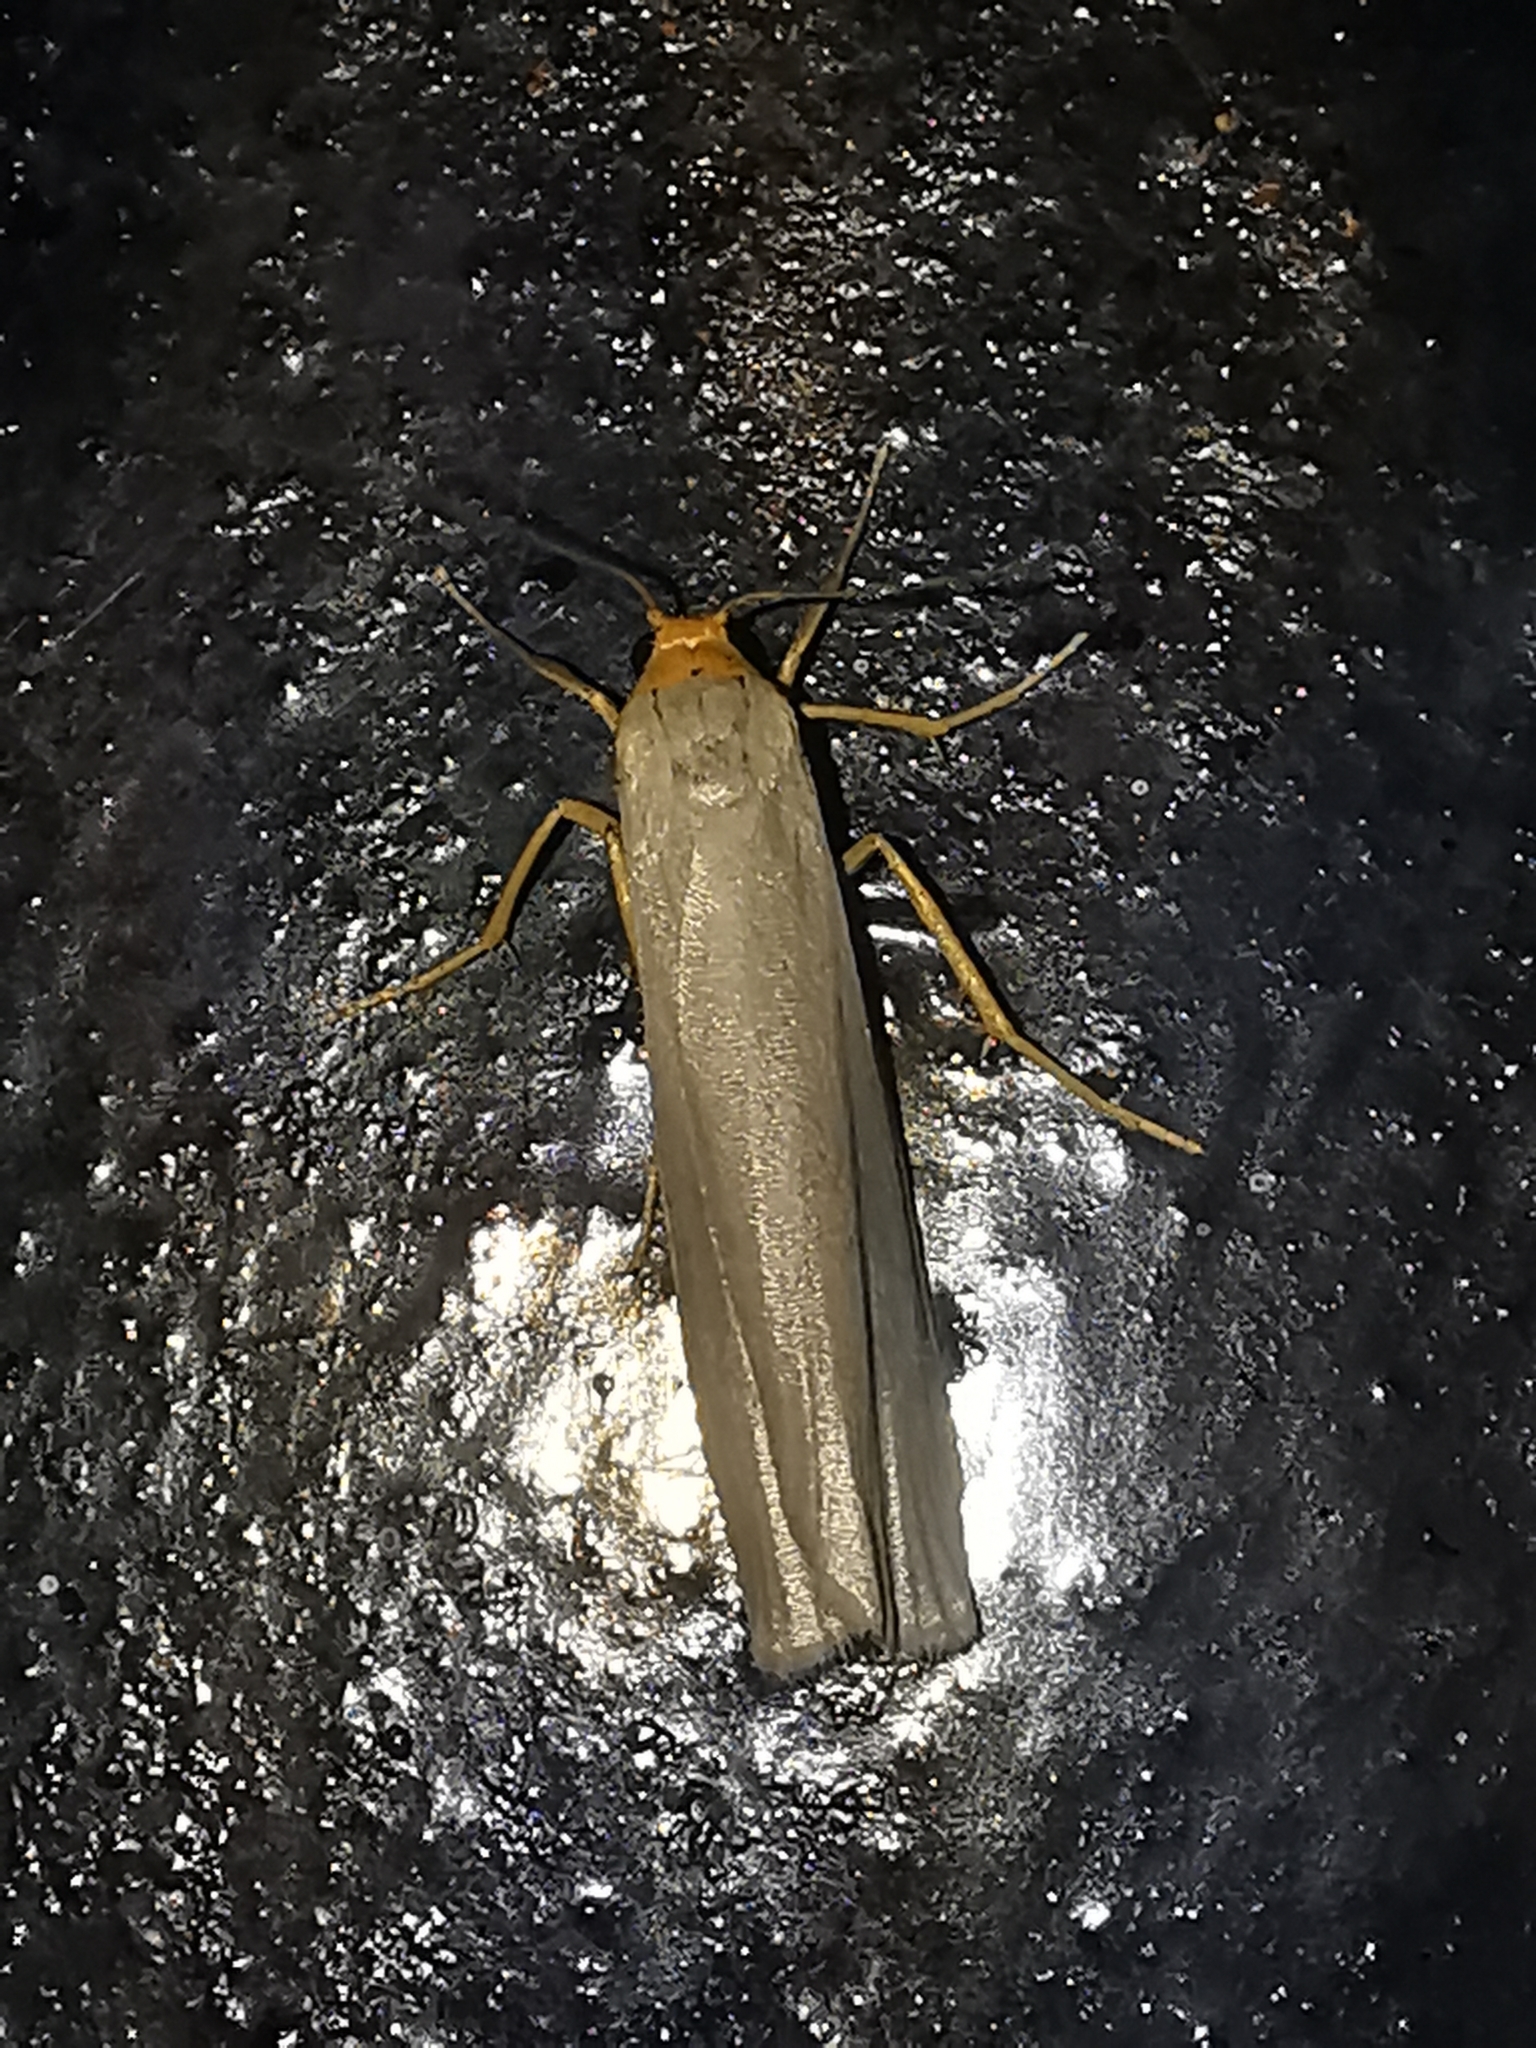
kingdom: Animalia
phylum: Arthropoda
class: Insecta
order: Lepidoptera
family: Erebidae
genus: Manulea
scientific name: Manulea complana
